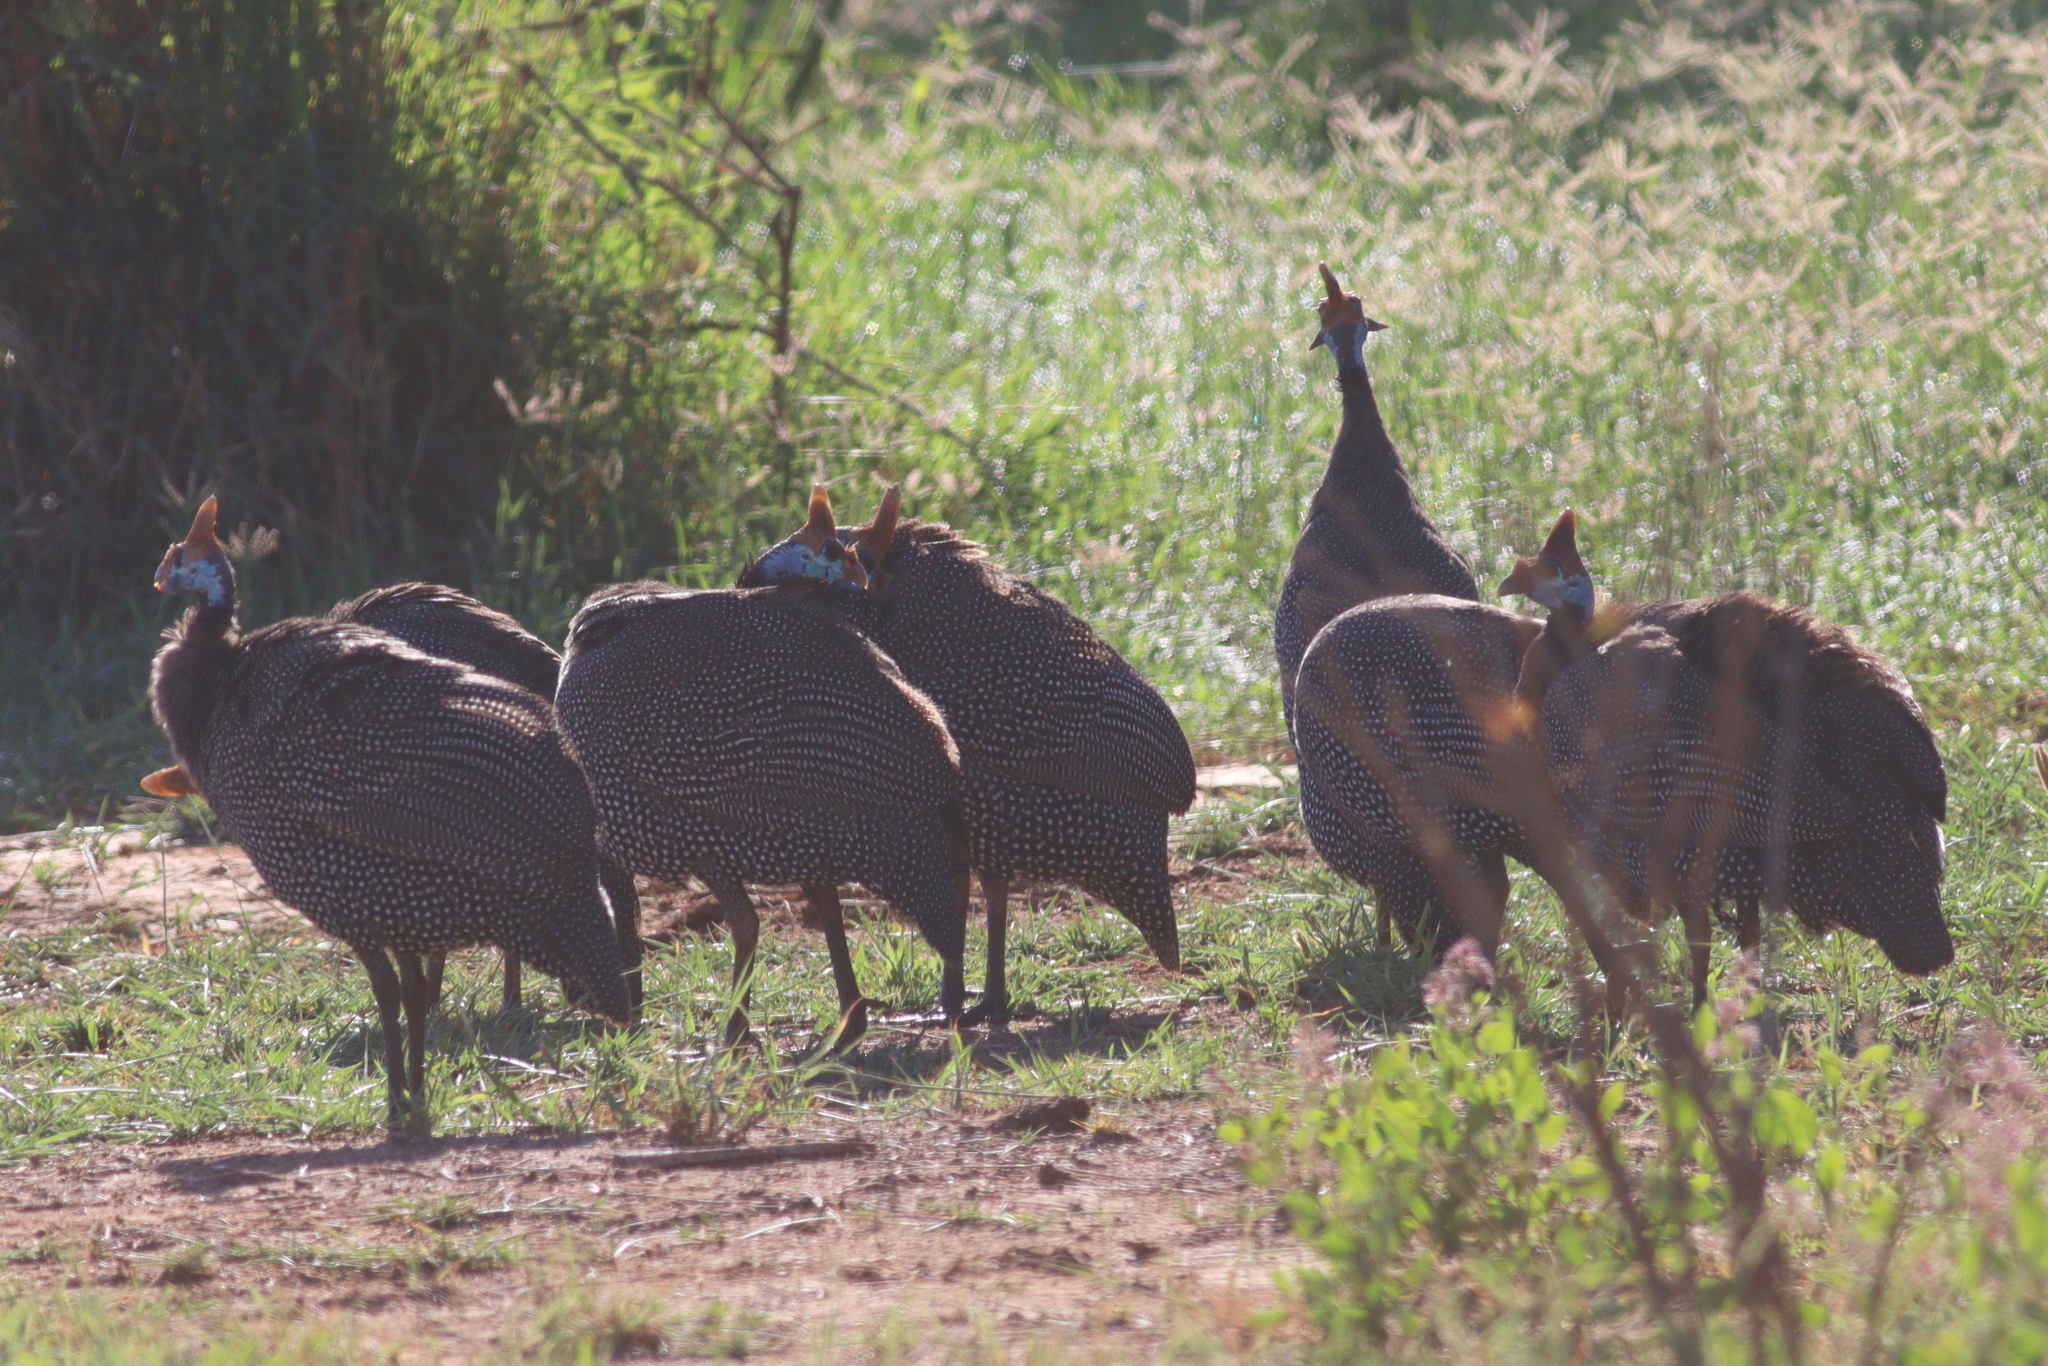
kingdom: Animalia
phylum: Chordata
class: Aves
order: Galliformes
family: Numididae
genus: Numida
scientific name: Numida meleagris
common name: Helmeted guineafowl
